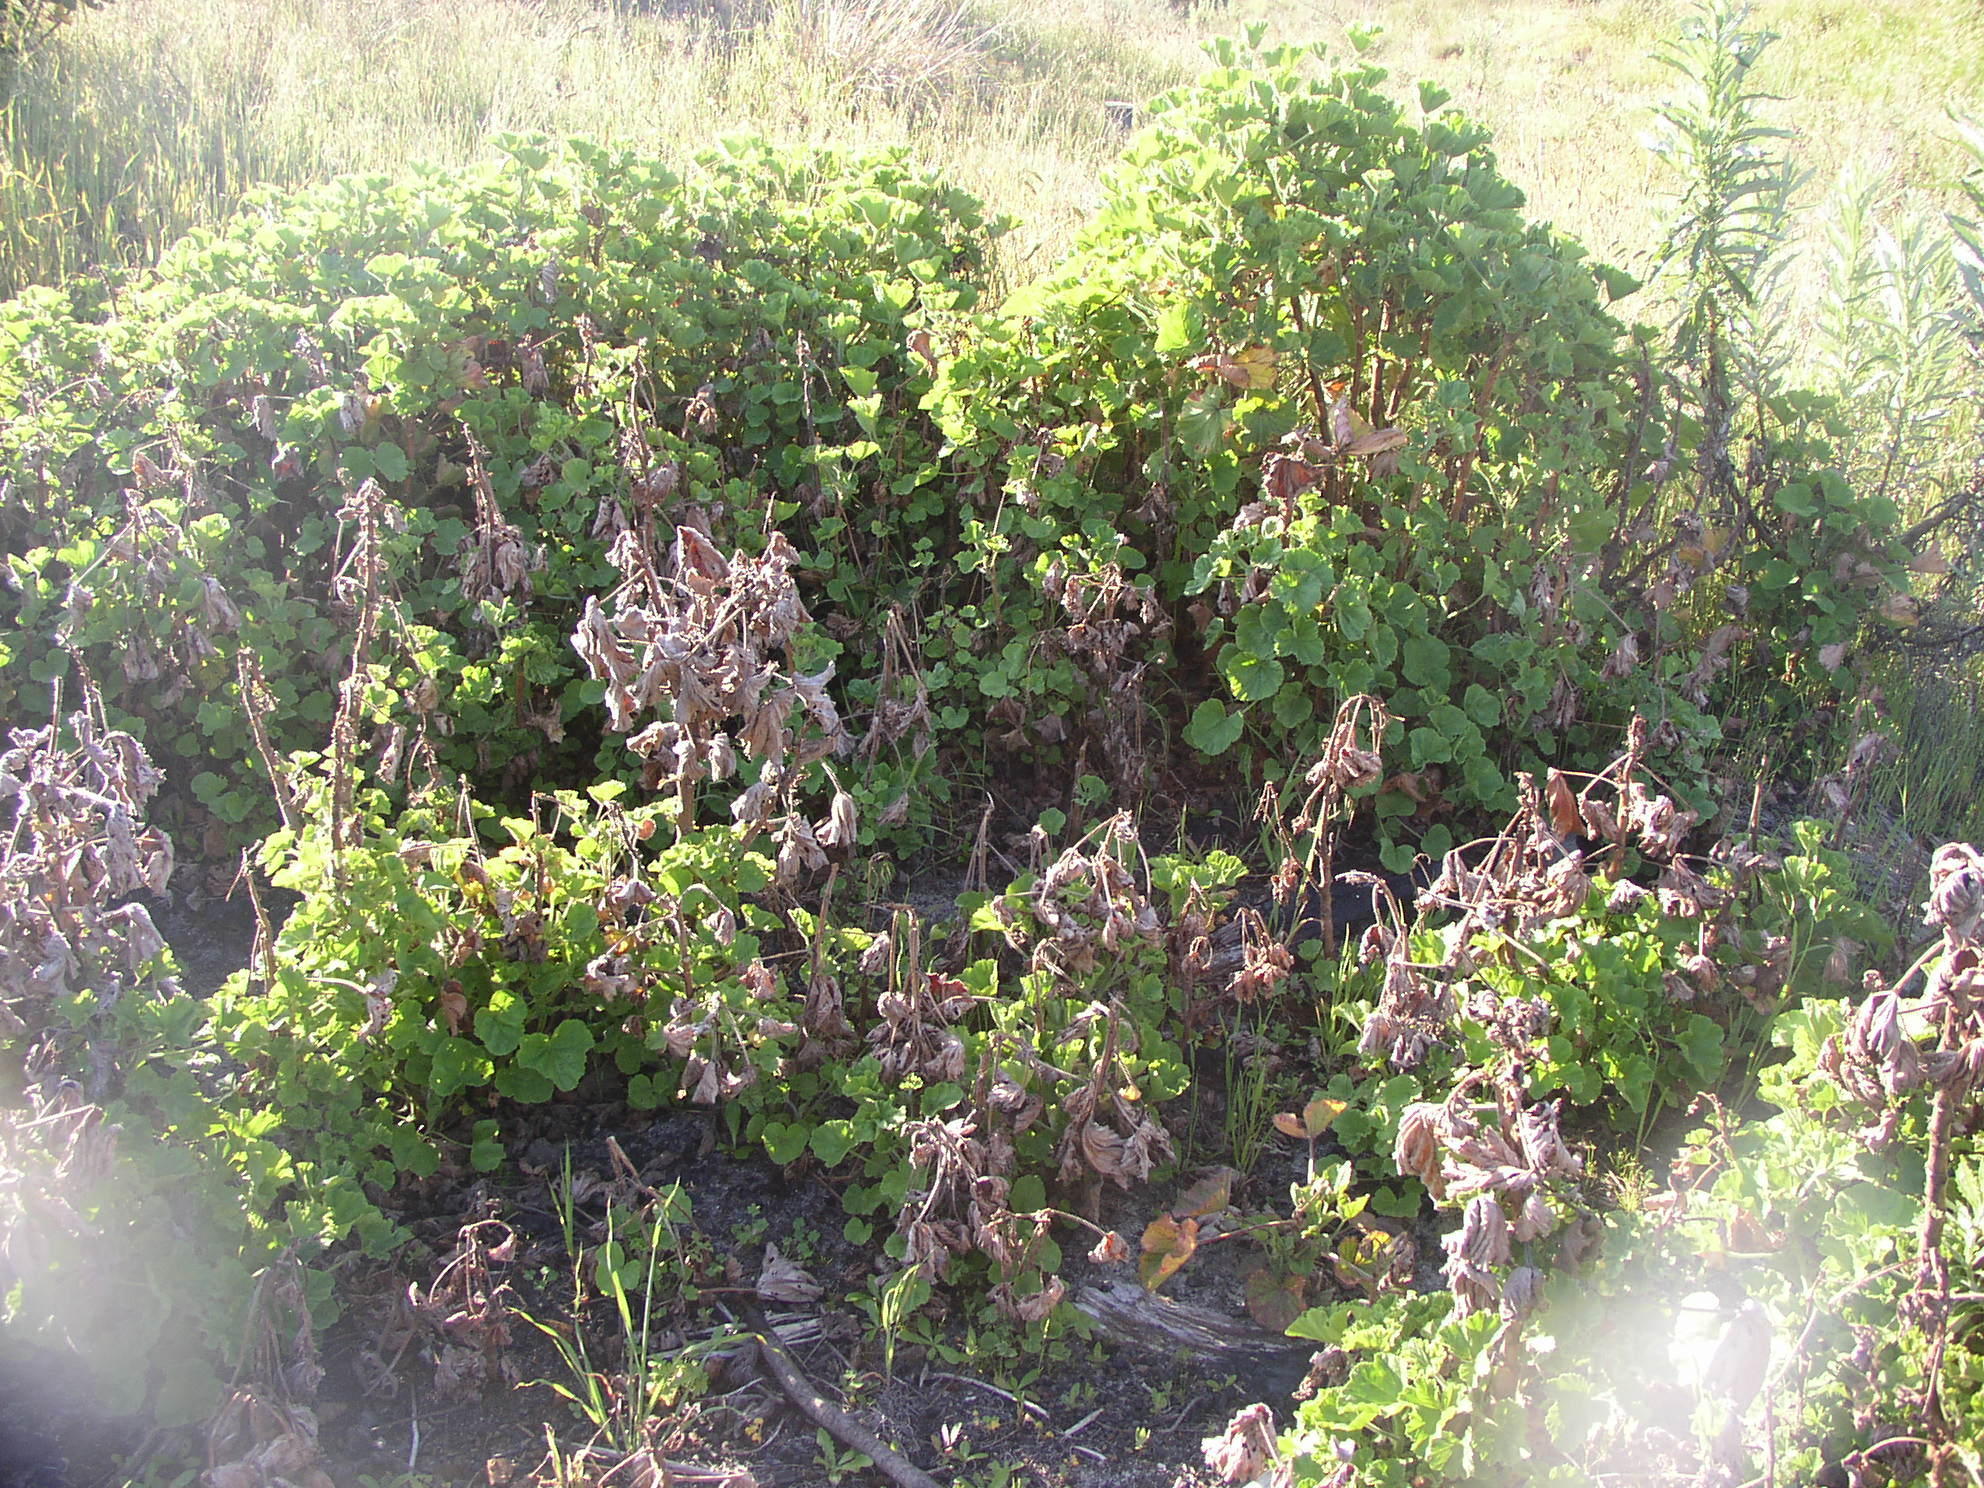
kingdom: Plantae
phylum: Tracheophyta
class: Magnoliopsida
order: Geraniales
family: Geraniaceae
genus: Pelargonium
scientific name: Pelargonium cucullatum
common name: Tree pelargonium
